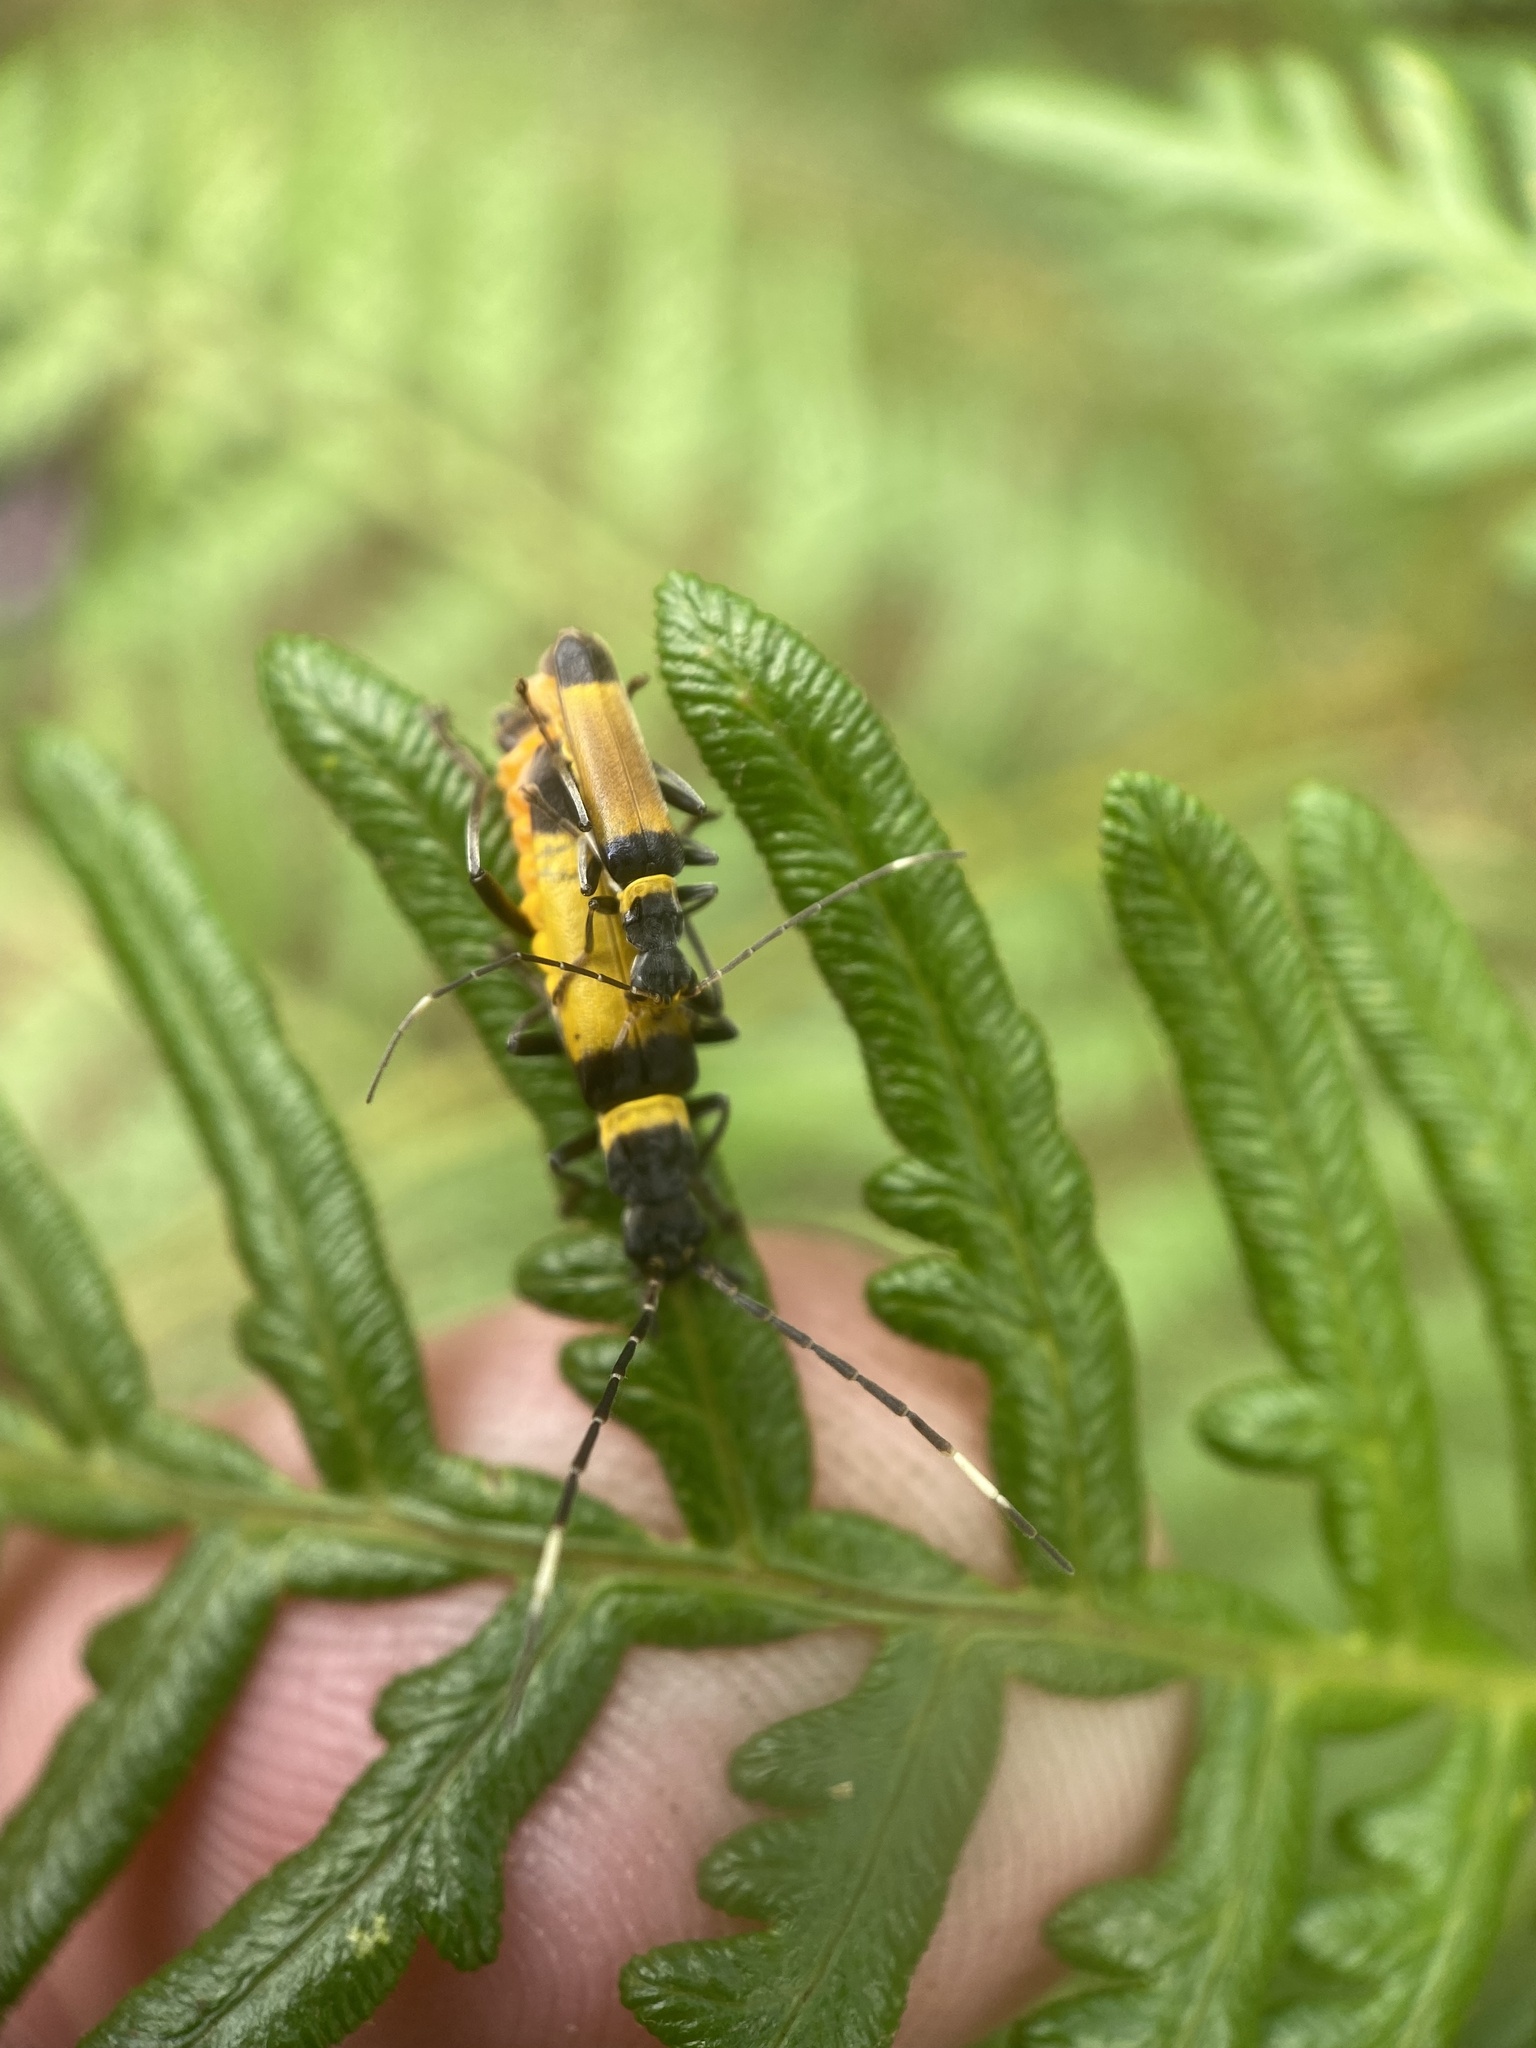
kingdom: Animalia
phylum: Arthropoda
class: Insecta
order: Coleoptera
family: Cantharidae
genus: Chauliognathus
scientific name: Chauliognathus
